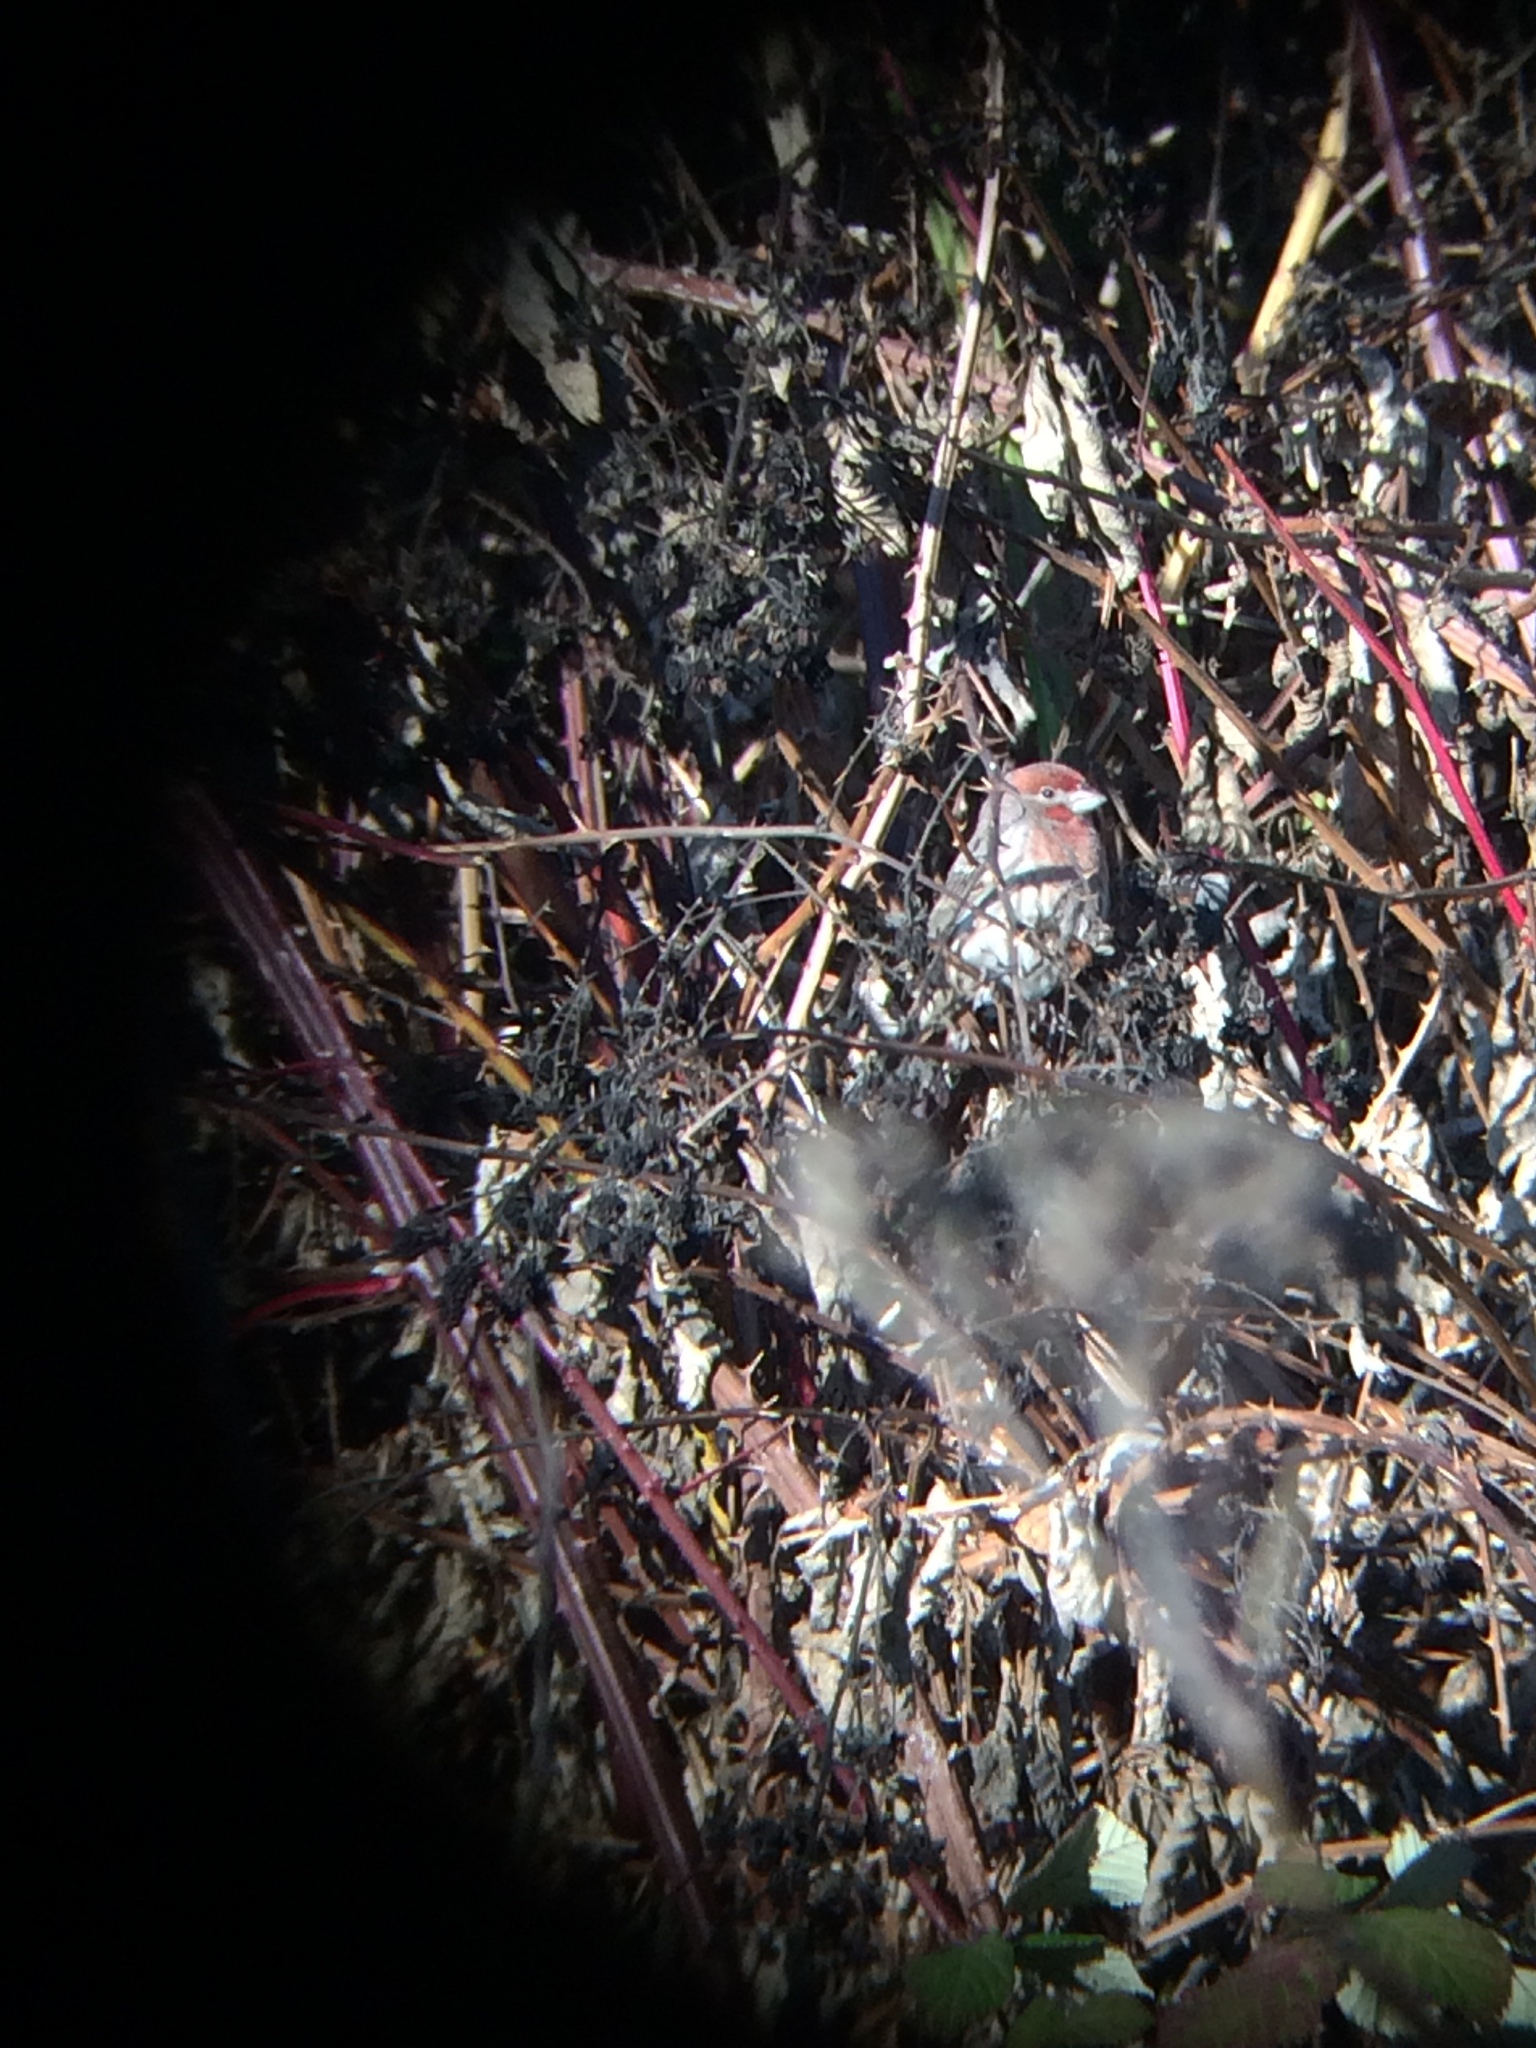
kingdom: Animalia
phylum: Chordata
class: Aves
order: Passeriformes
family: Fringillidae
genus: Haemorhous
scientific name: Haemorhous mexicanus
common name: House finch
